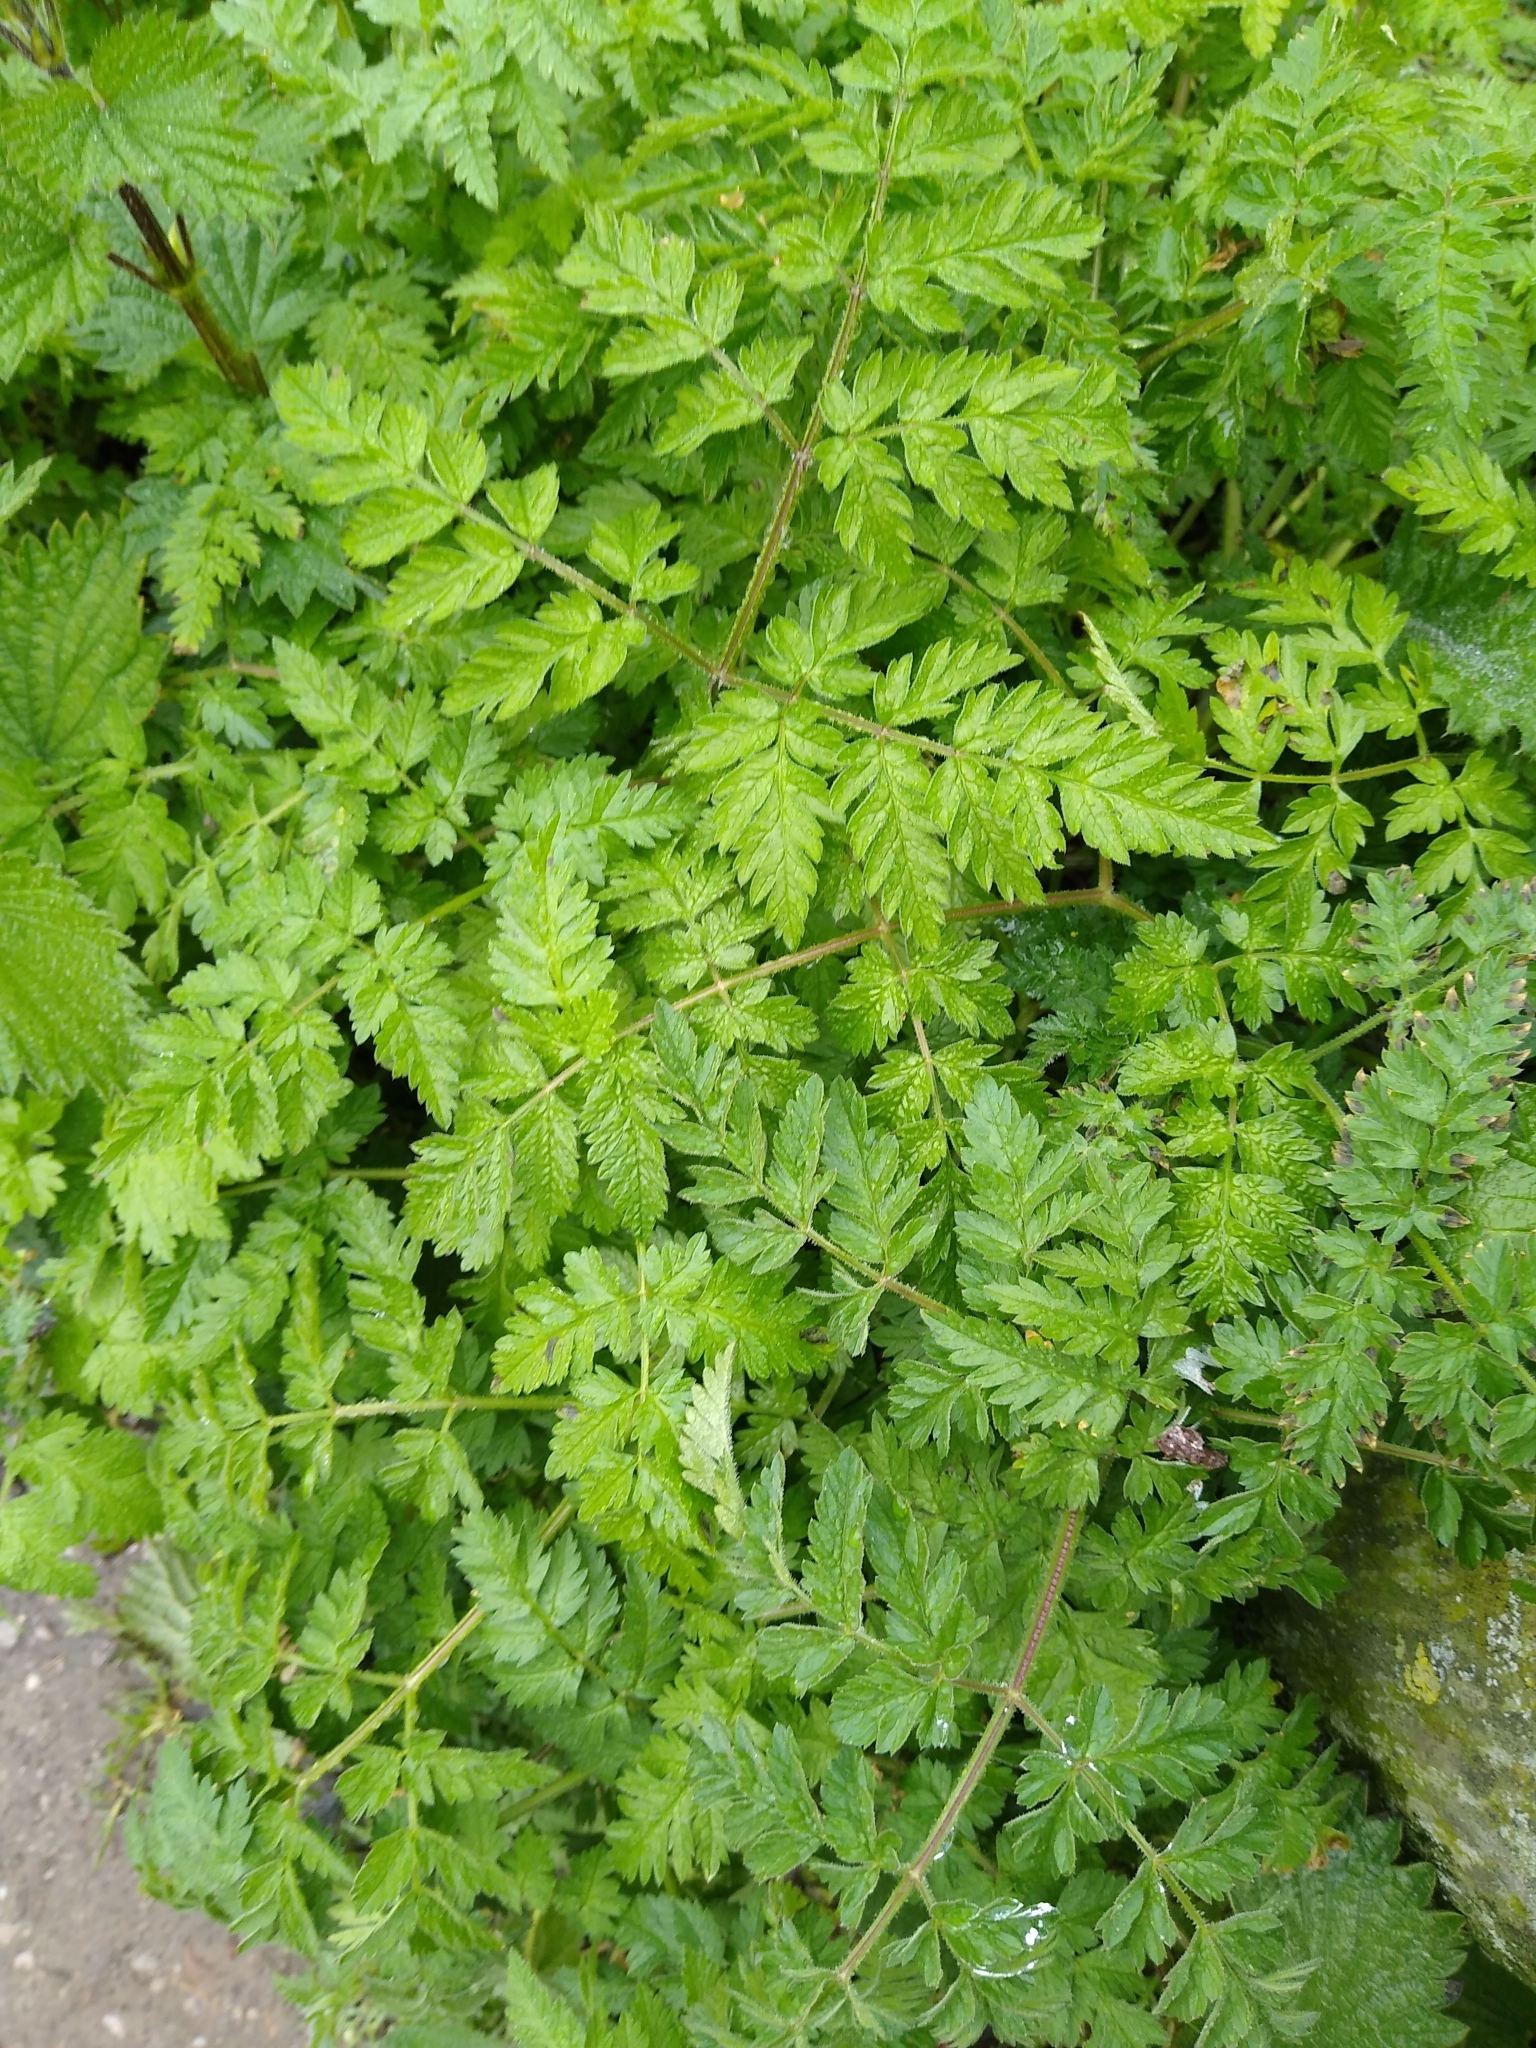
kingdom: Plantae
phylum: Tracheophyta
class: Magnoliopsida
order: Apiales
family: Apiaceae
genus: Anthriscus
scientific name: Anthriscus sylvestris
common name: Cow parsley
